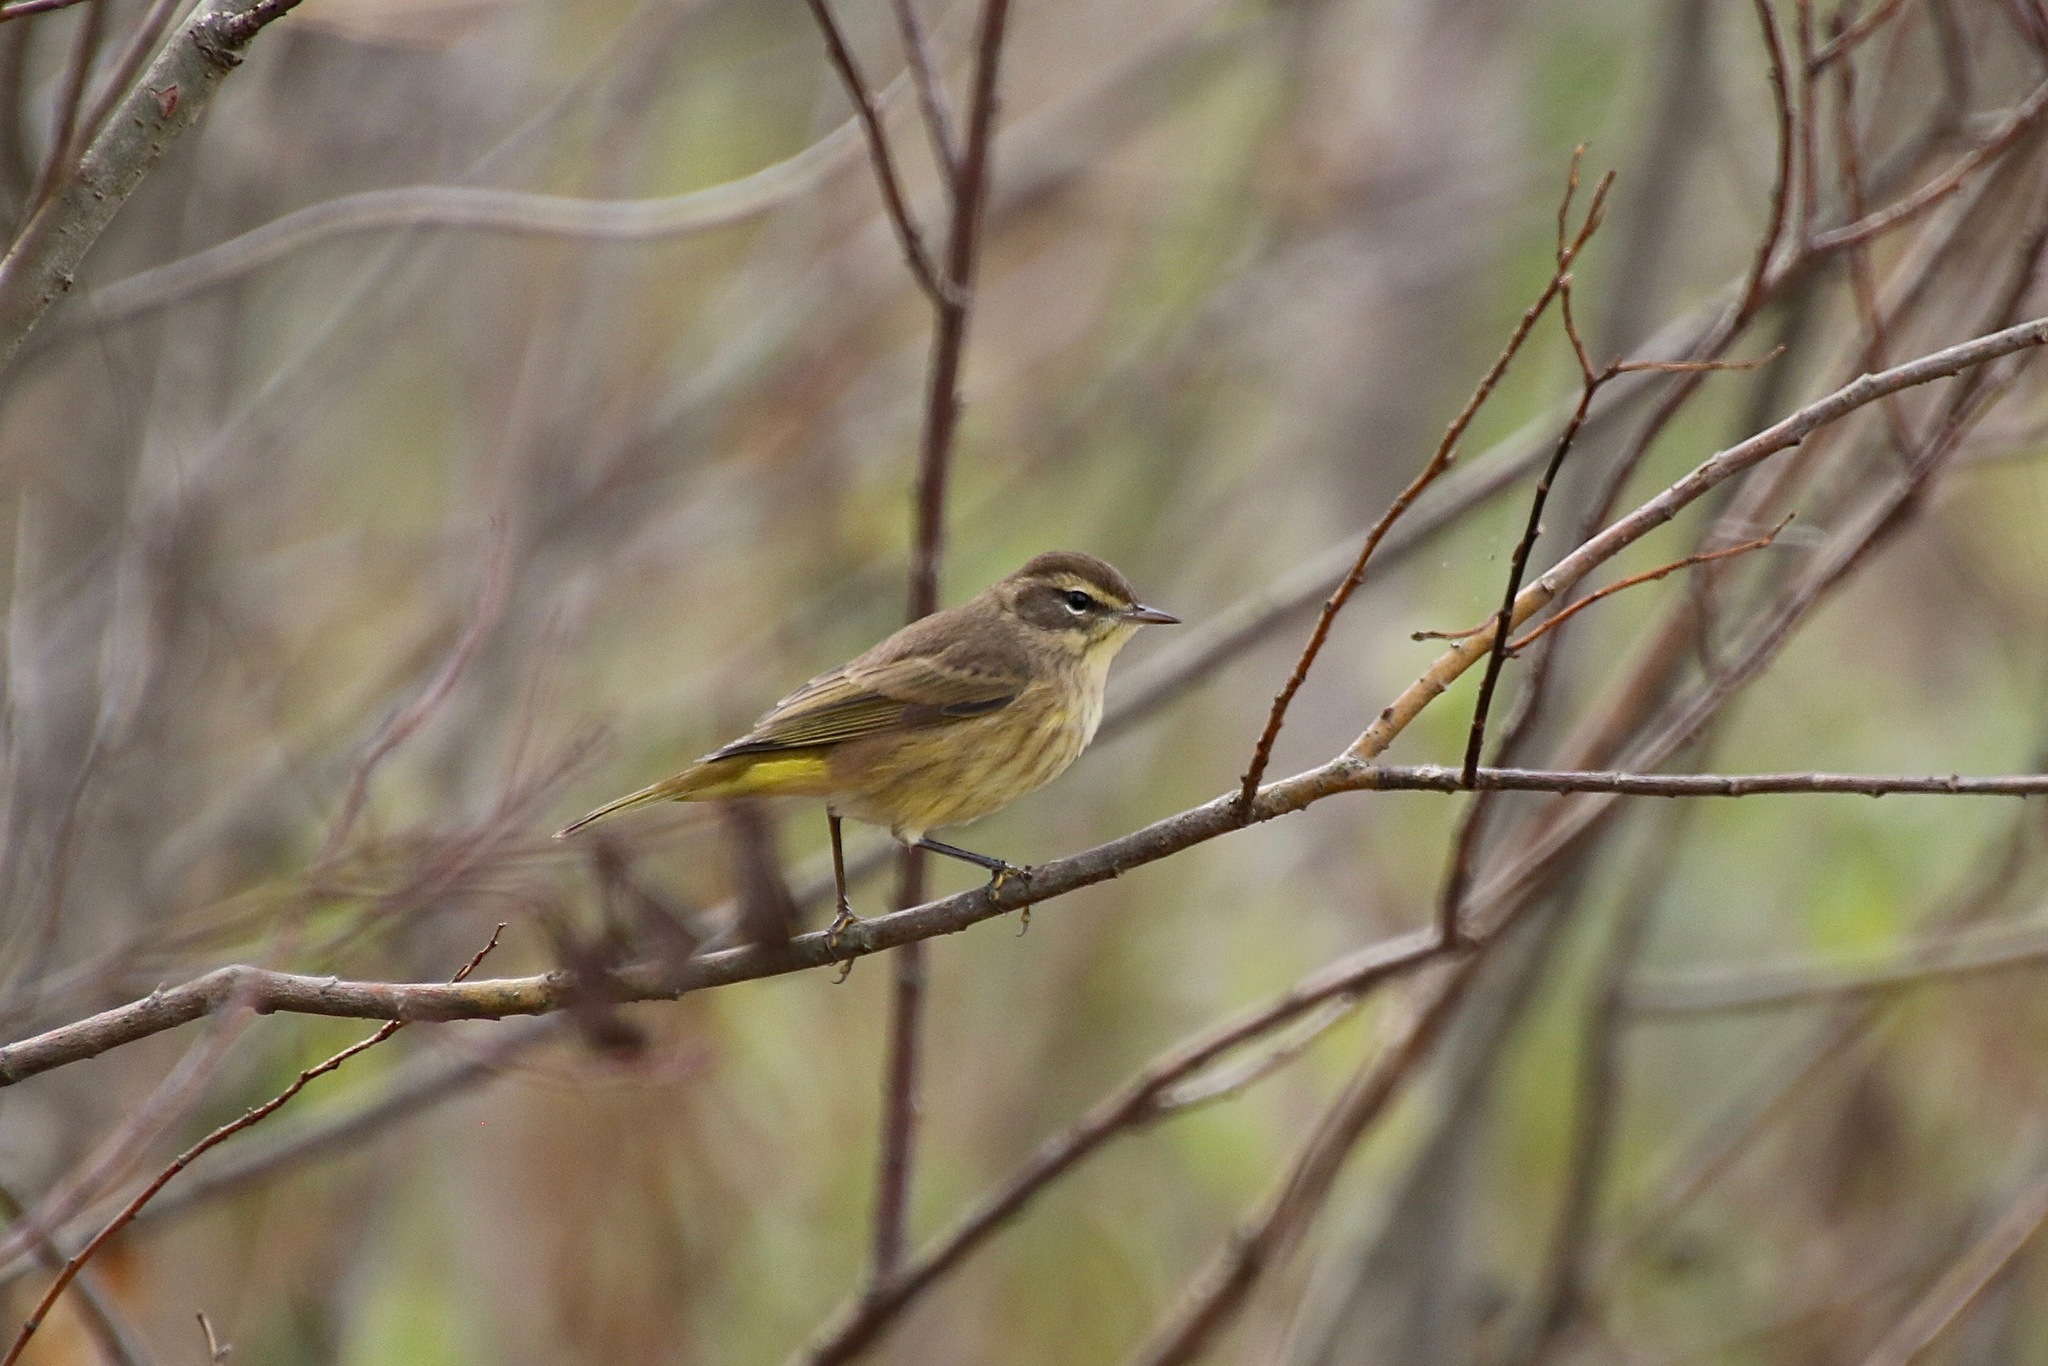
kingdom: Animalia
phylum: Chordata
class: Aves
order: Passeriformes
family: Parulidae
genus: Setophaga
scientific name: Setophaga palmarum
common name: Palm warbler
